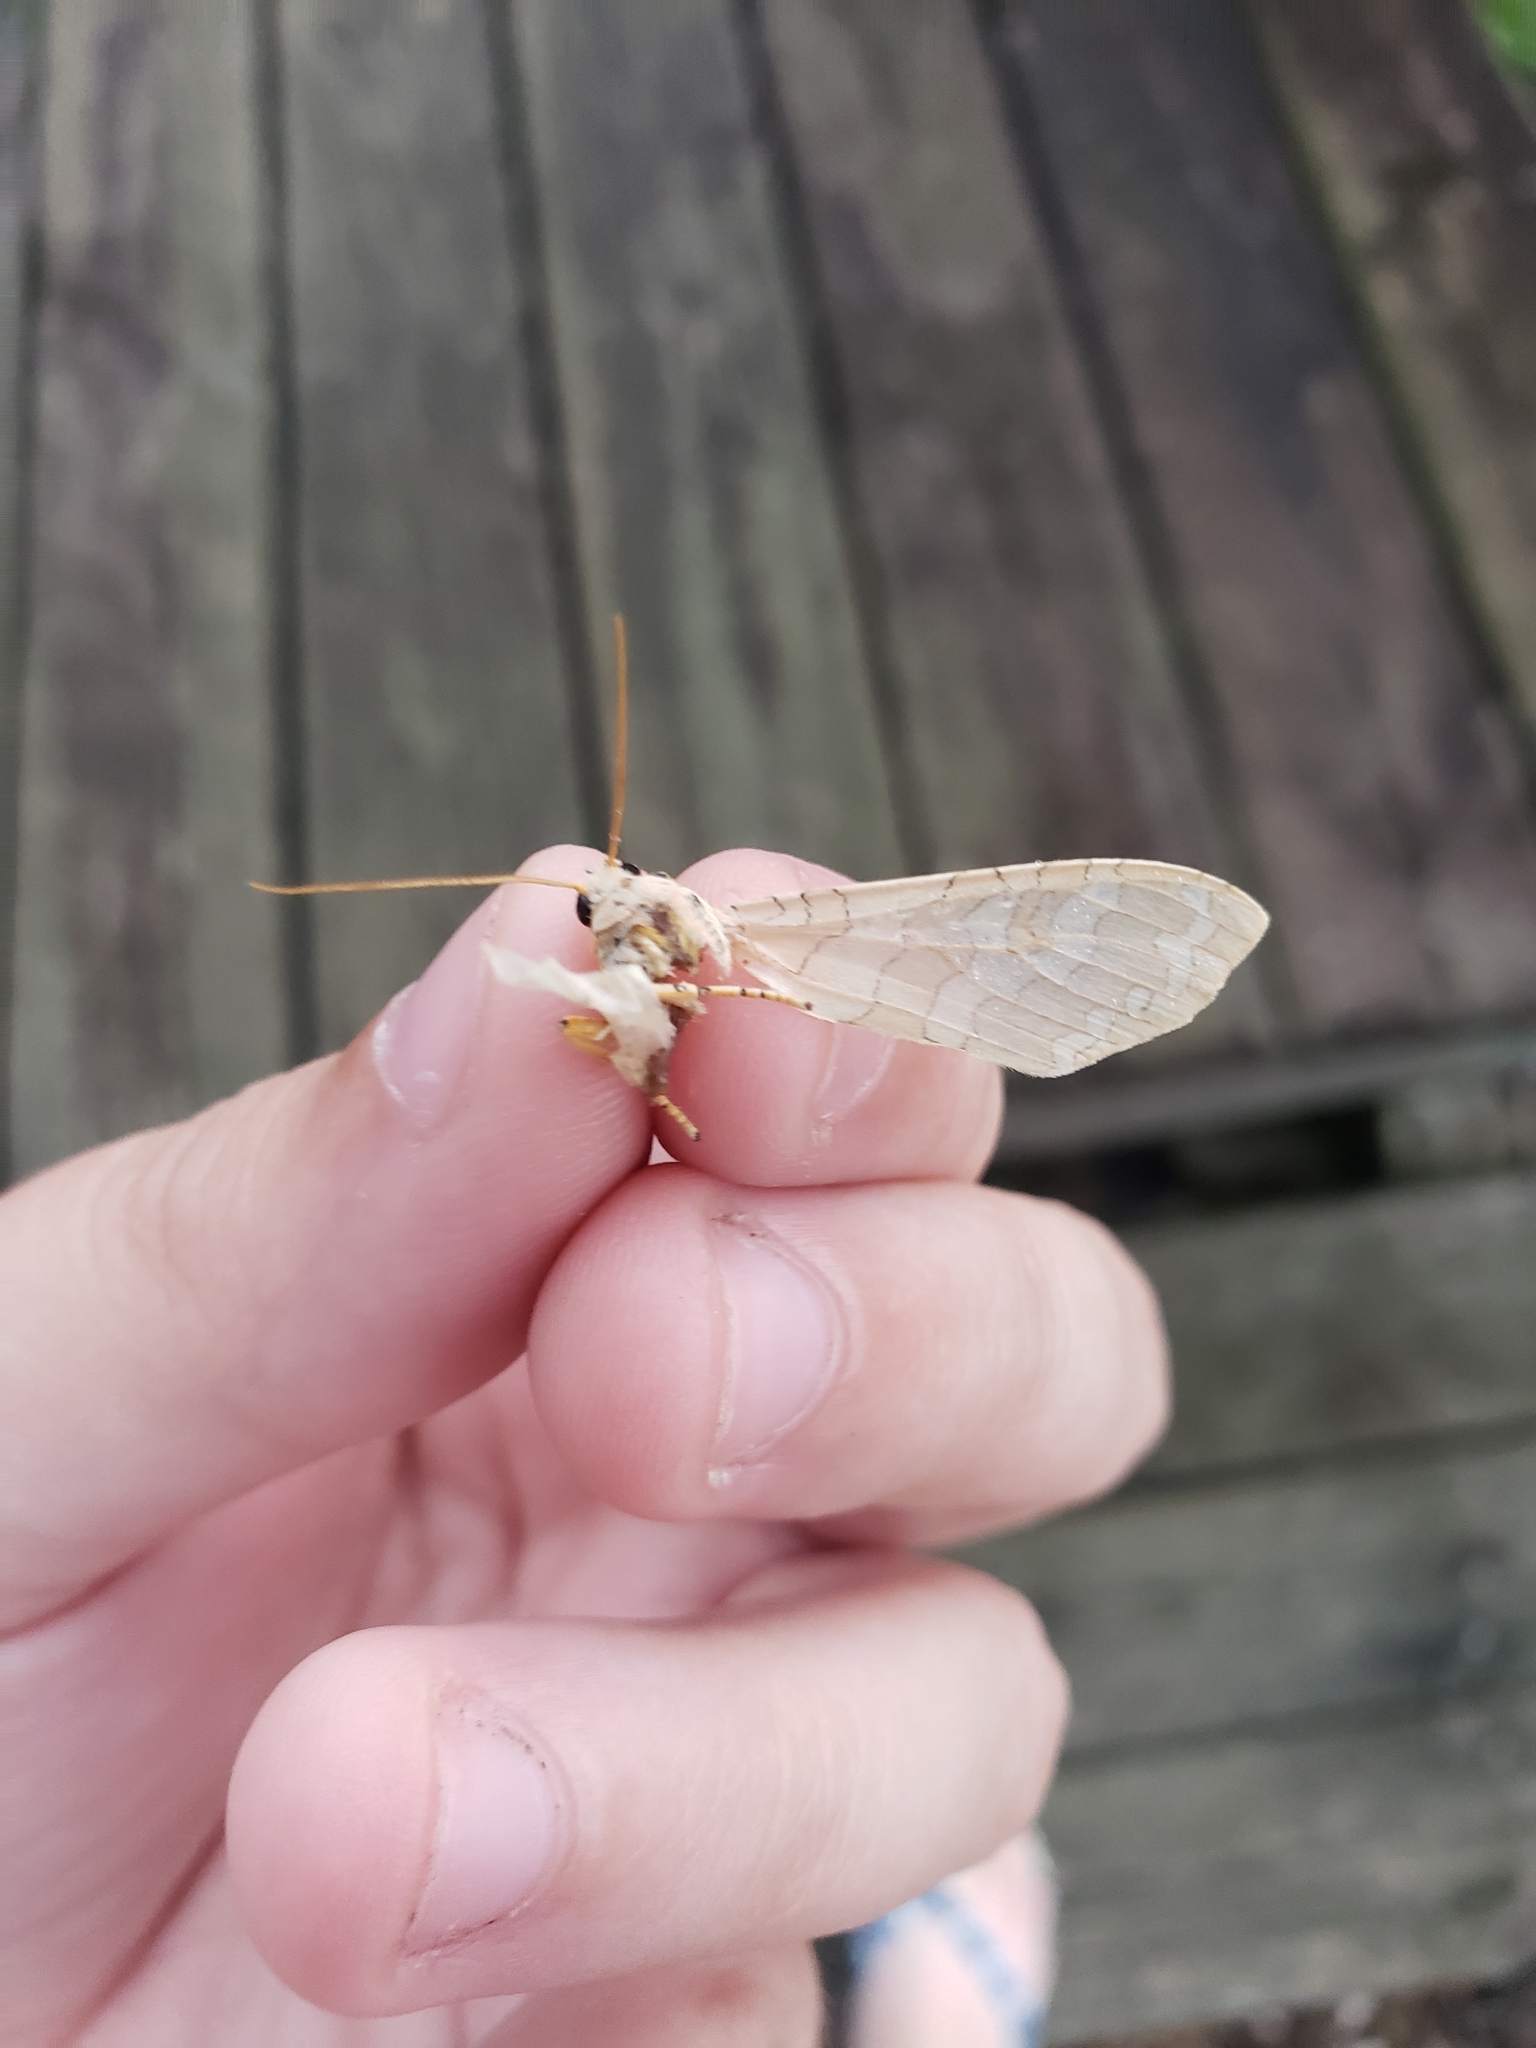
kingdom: Animalia
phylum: Arthropoda
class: Insecta
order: Lepidoptera
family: Erebidae
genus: Halysidota
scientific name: Halysidota
